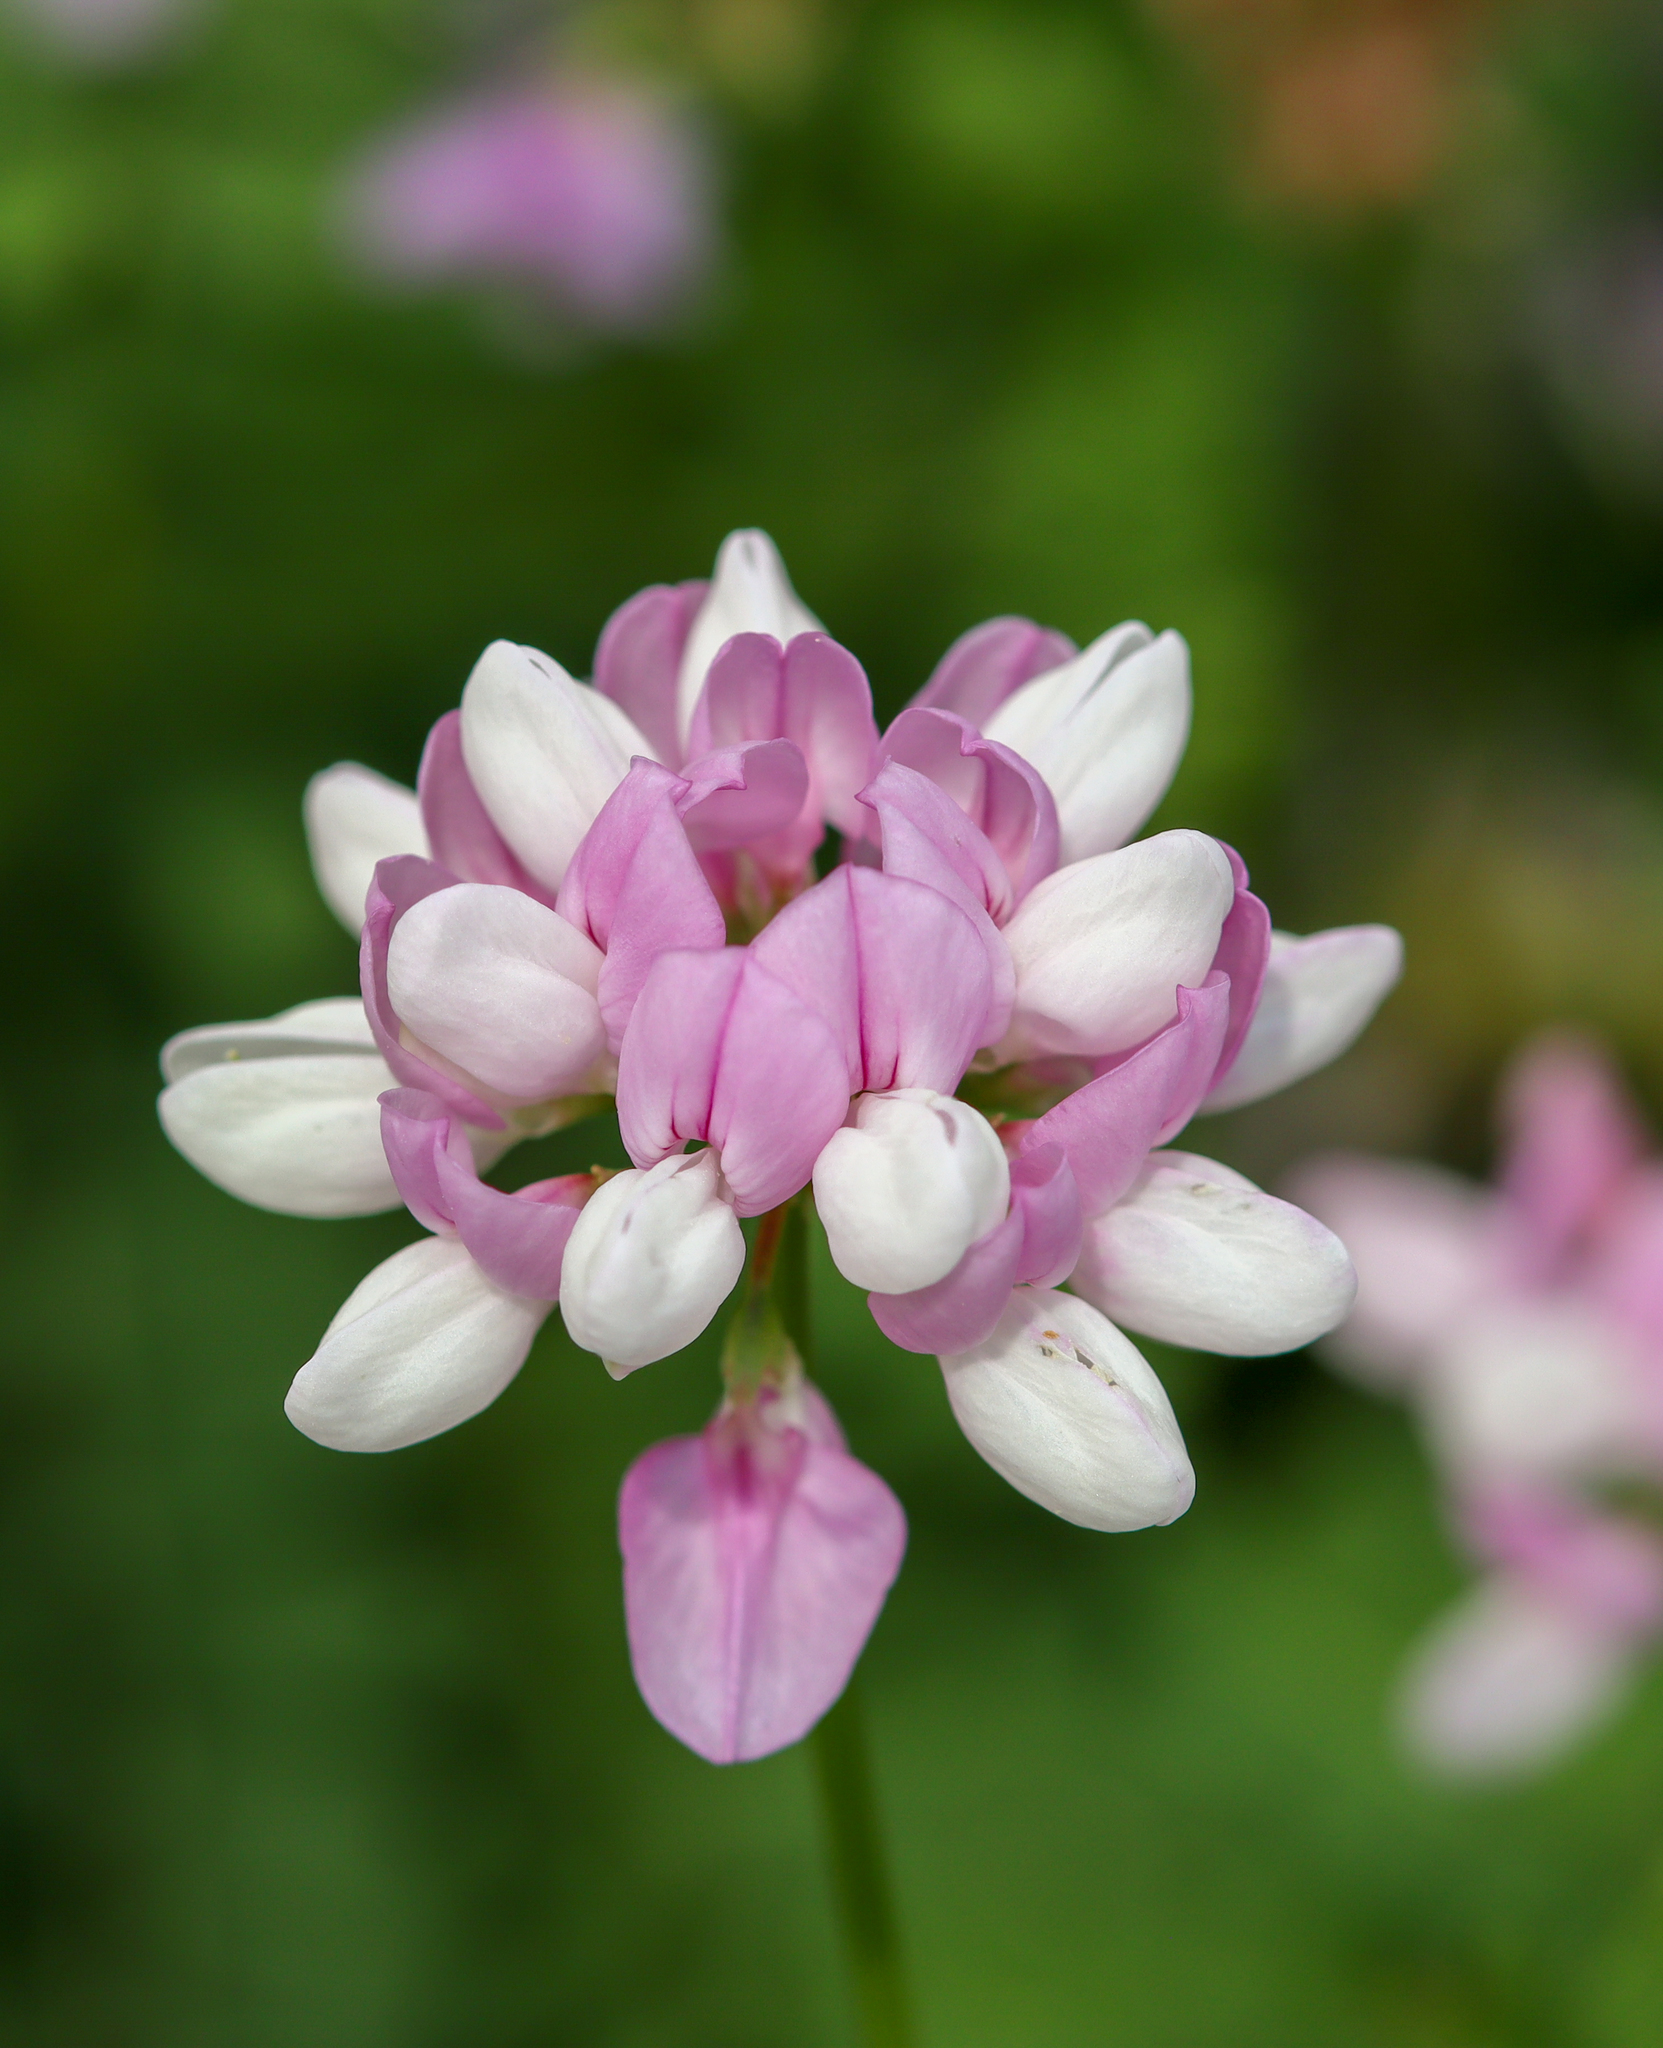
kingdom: Plantae
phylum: Tracheophyta
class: Magnoliopsida
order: Fabales
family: Fabaceae
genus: Coronilla
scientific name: Coronilla varia
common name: Crownvetch
